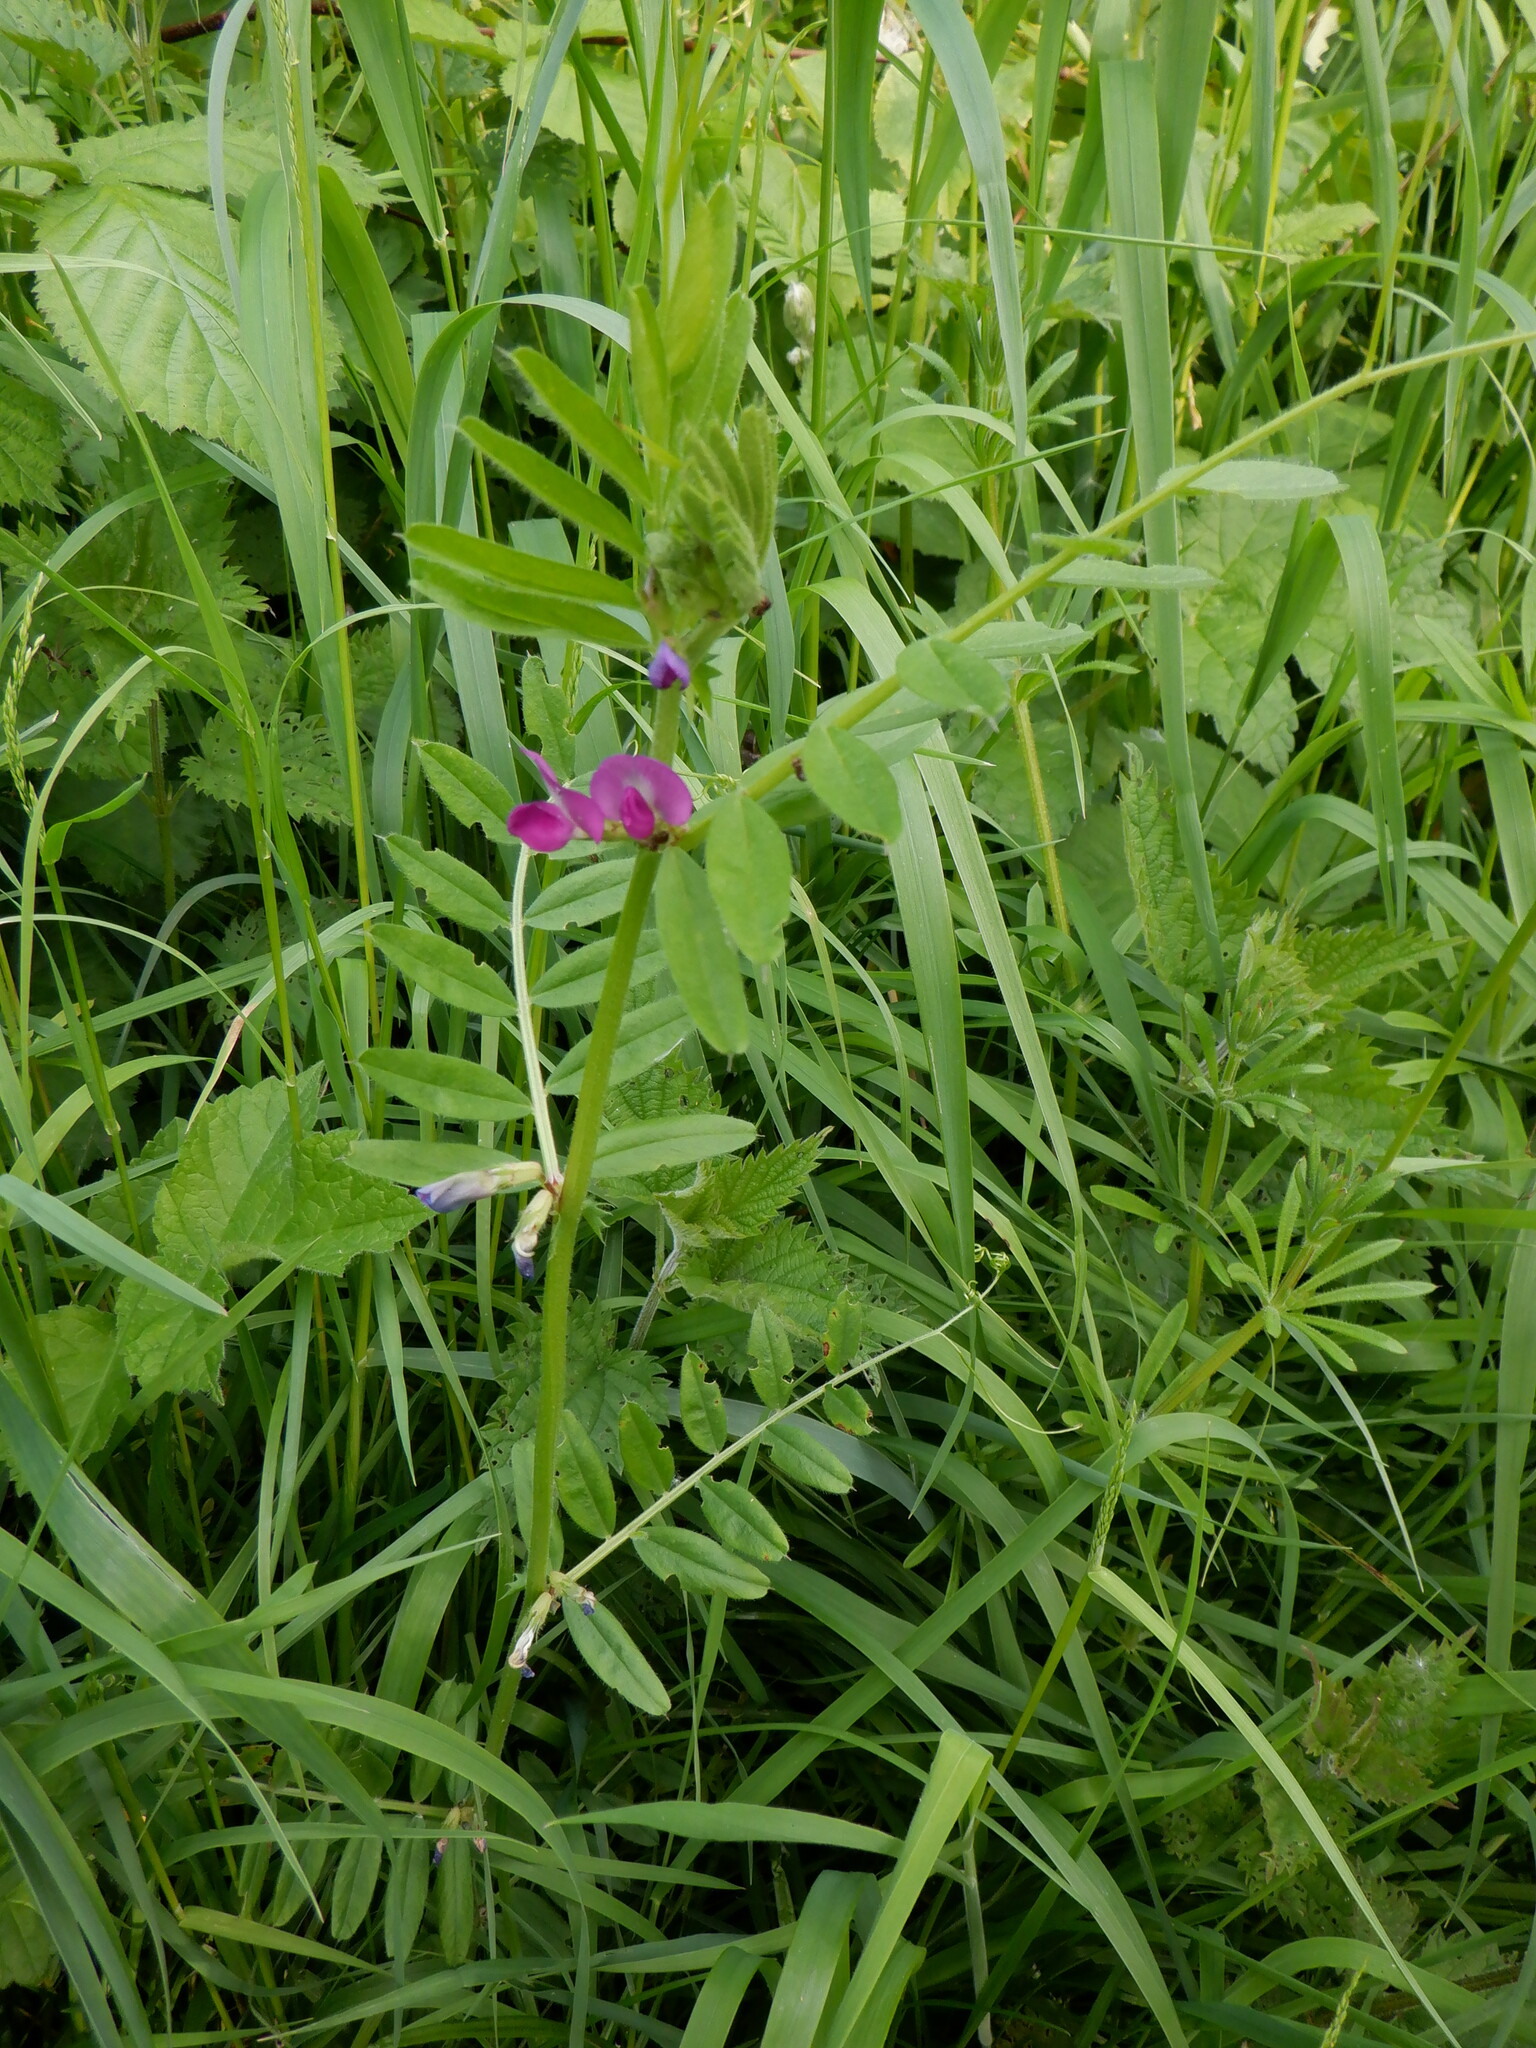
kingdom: Plantae
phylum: Tracheophyta
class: Magnoliopsida
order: Fabales
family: Fabaceae
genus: Vicia
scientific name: Vicia sativa
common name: Garden vetch
